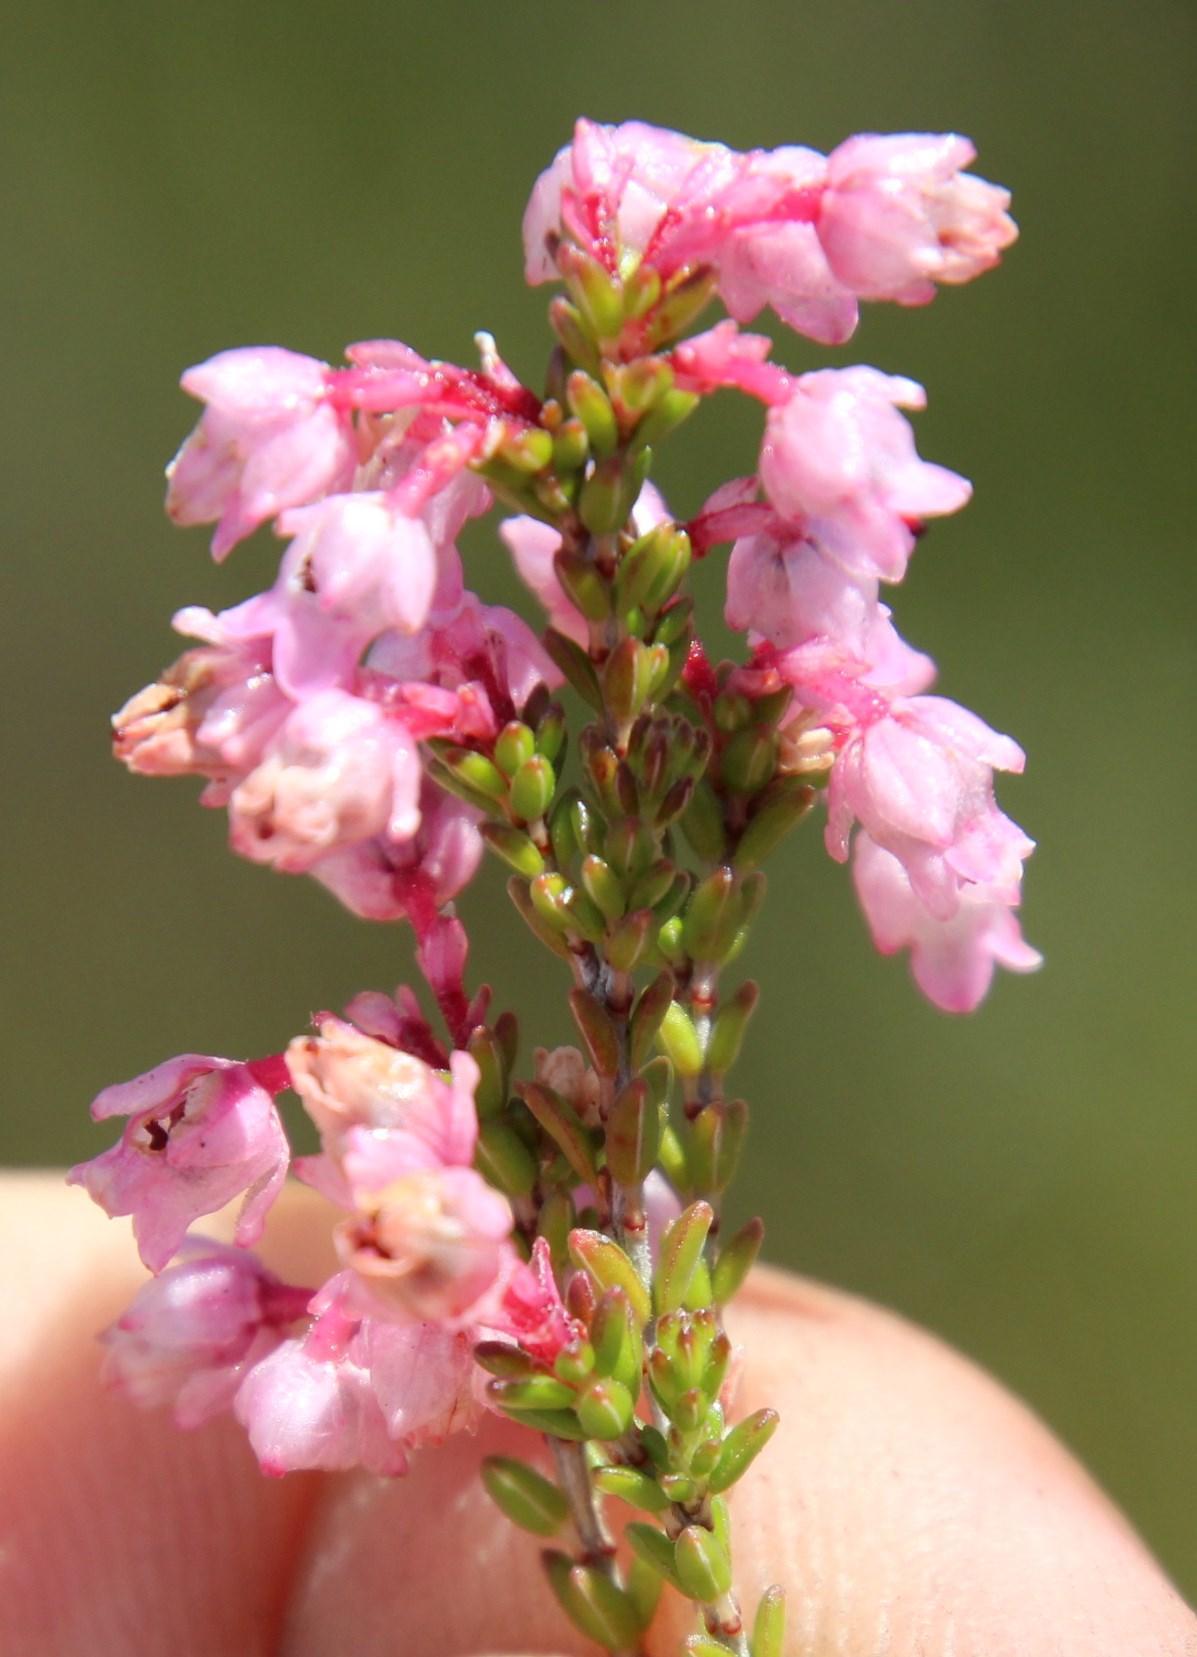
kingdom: Plantae
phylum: Tracheophyta
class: Magnoliopsida
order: Ericales
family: Ericaceae
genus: Erica
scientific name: Erica brevifolia
